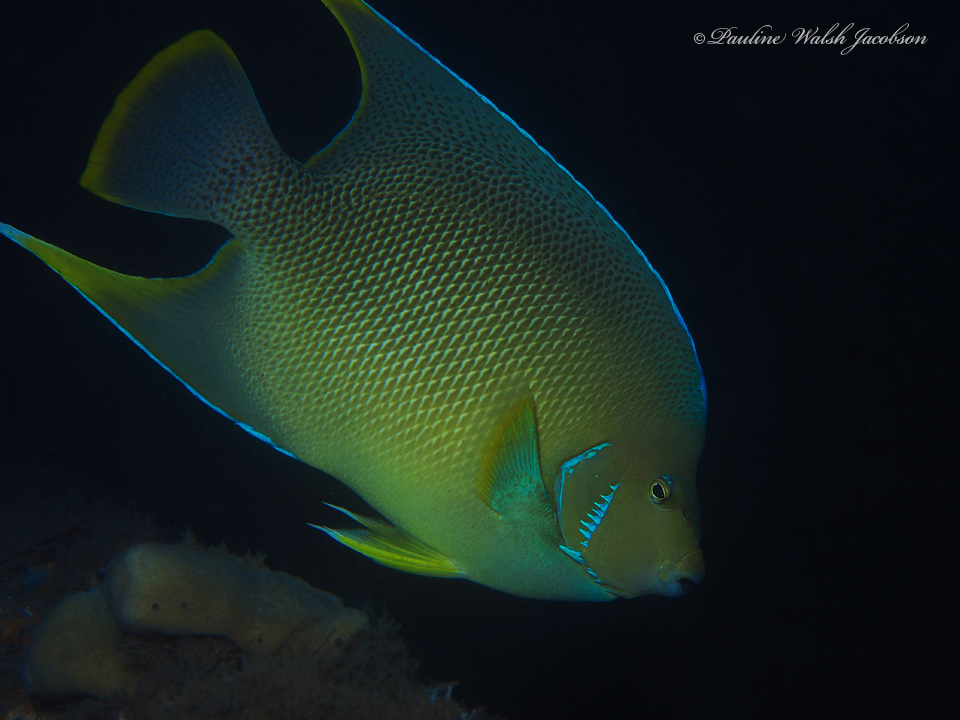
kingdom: Animalia
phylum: Chordata
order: Perciformes
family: Pomacanthidae
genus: Holacanthus
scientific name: Holacanthus bermudensis
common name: Blue angelfish
